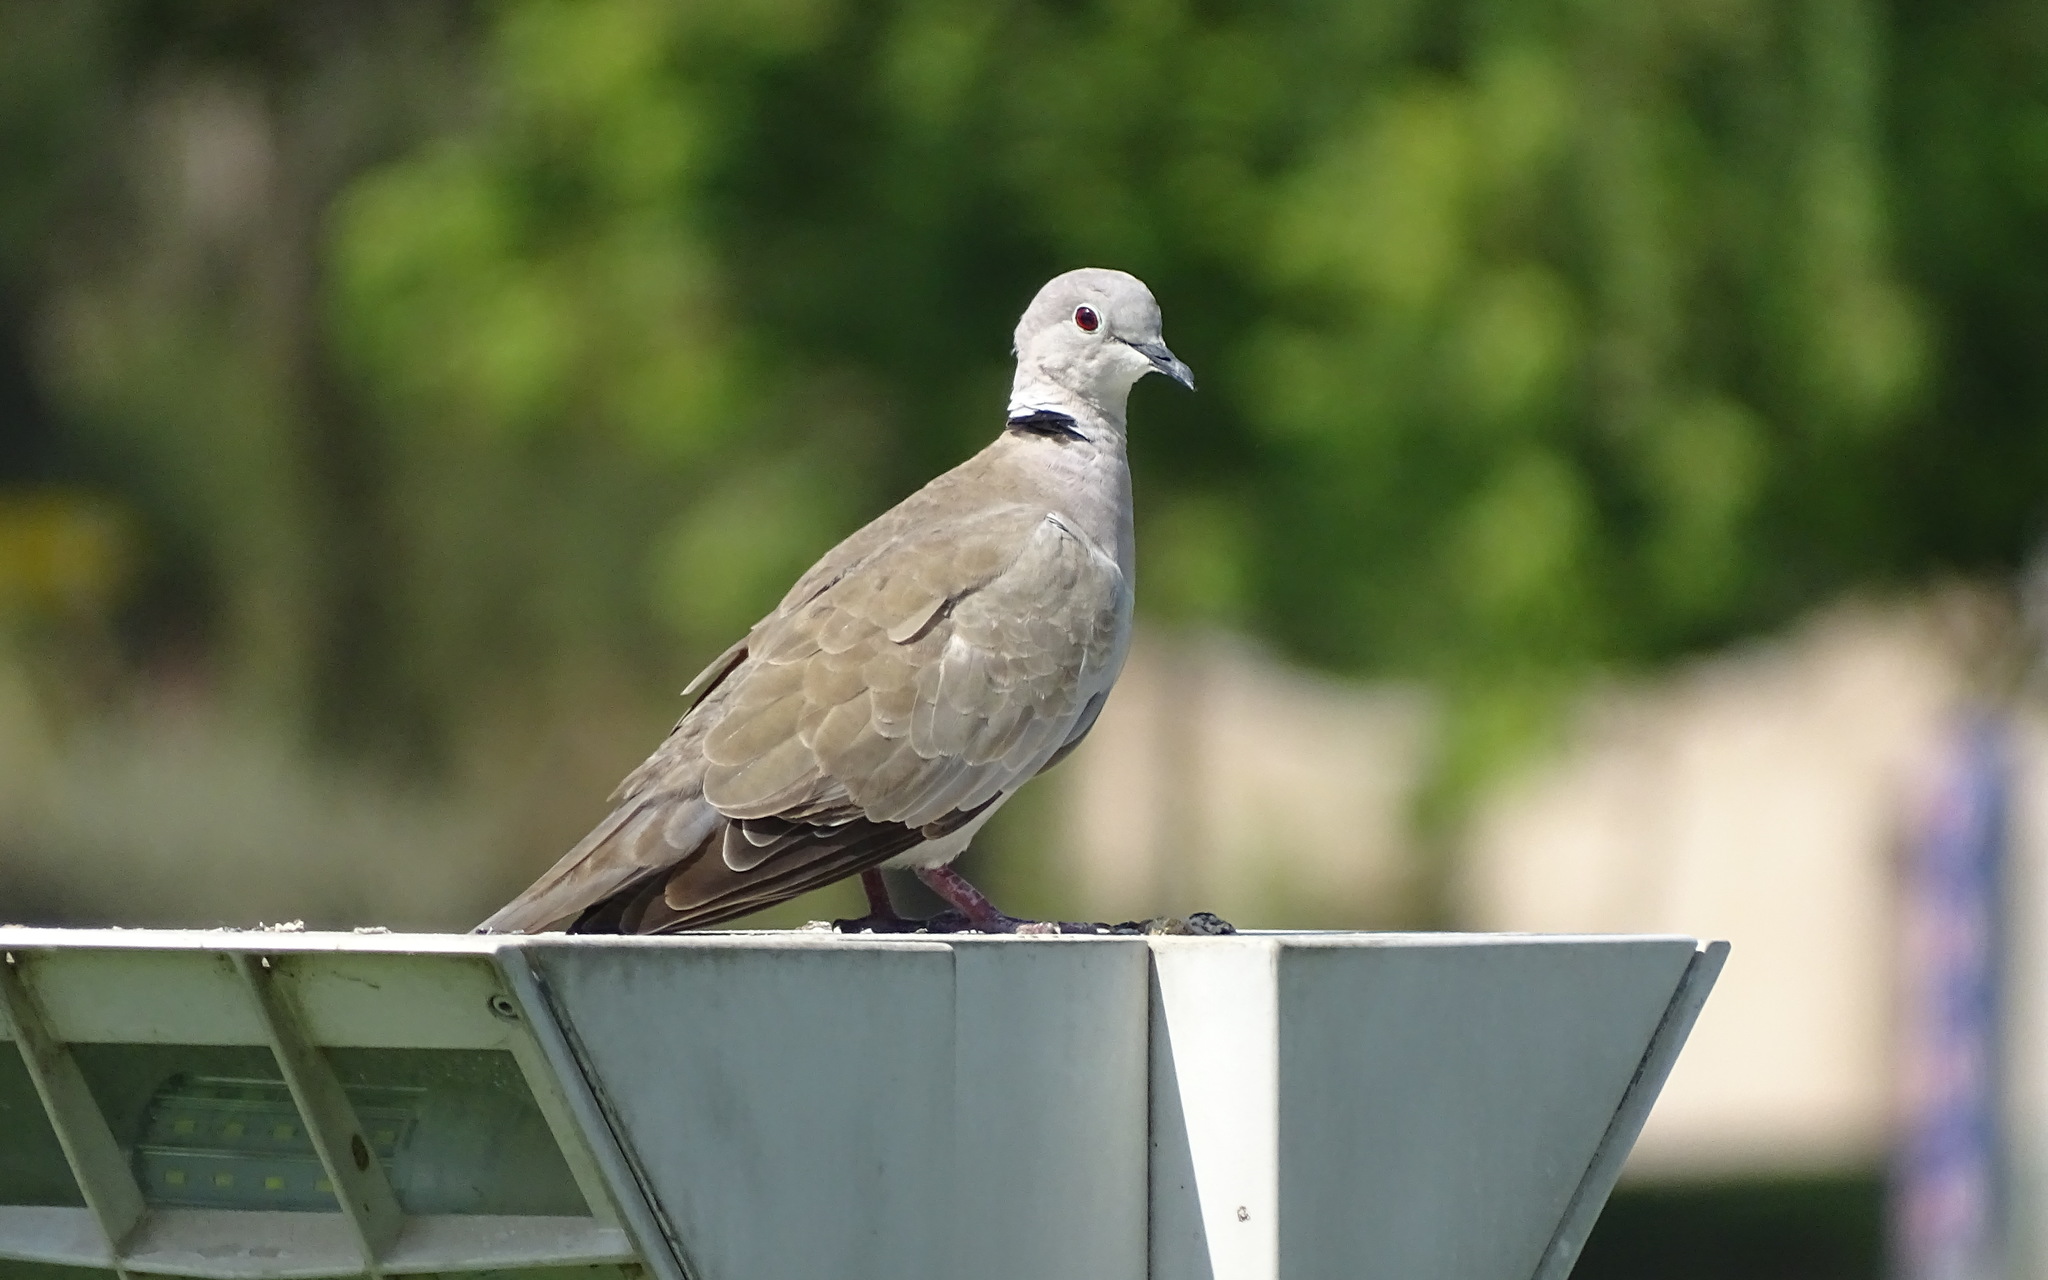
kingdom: Animalia
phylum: Chordata
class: Aves
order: Columbiformes
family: Columbidae
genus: Streptopelia
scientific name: Streptopelia decaocto
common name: Eurasian collared dove
